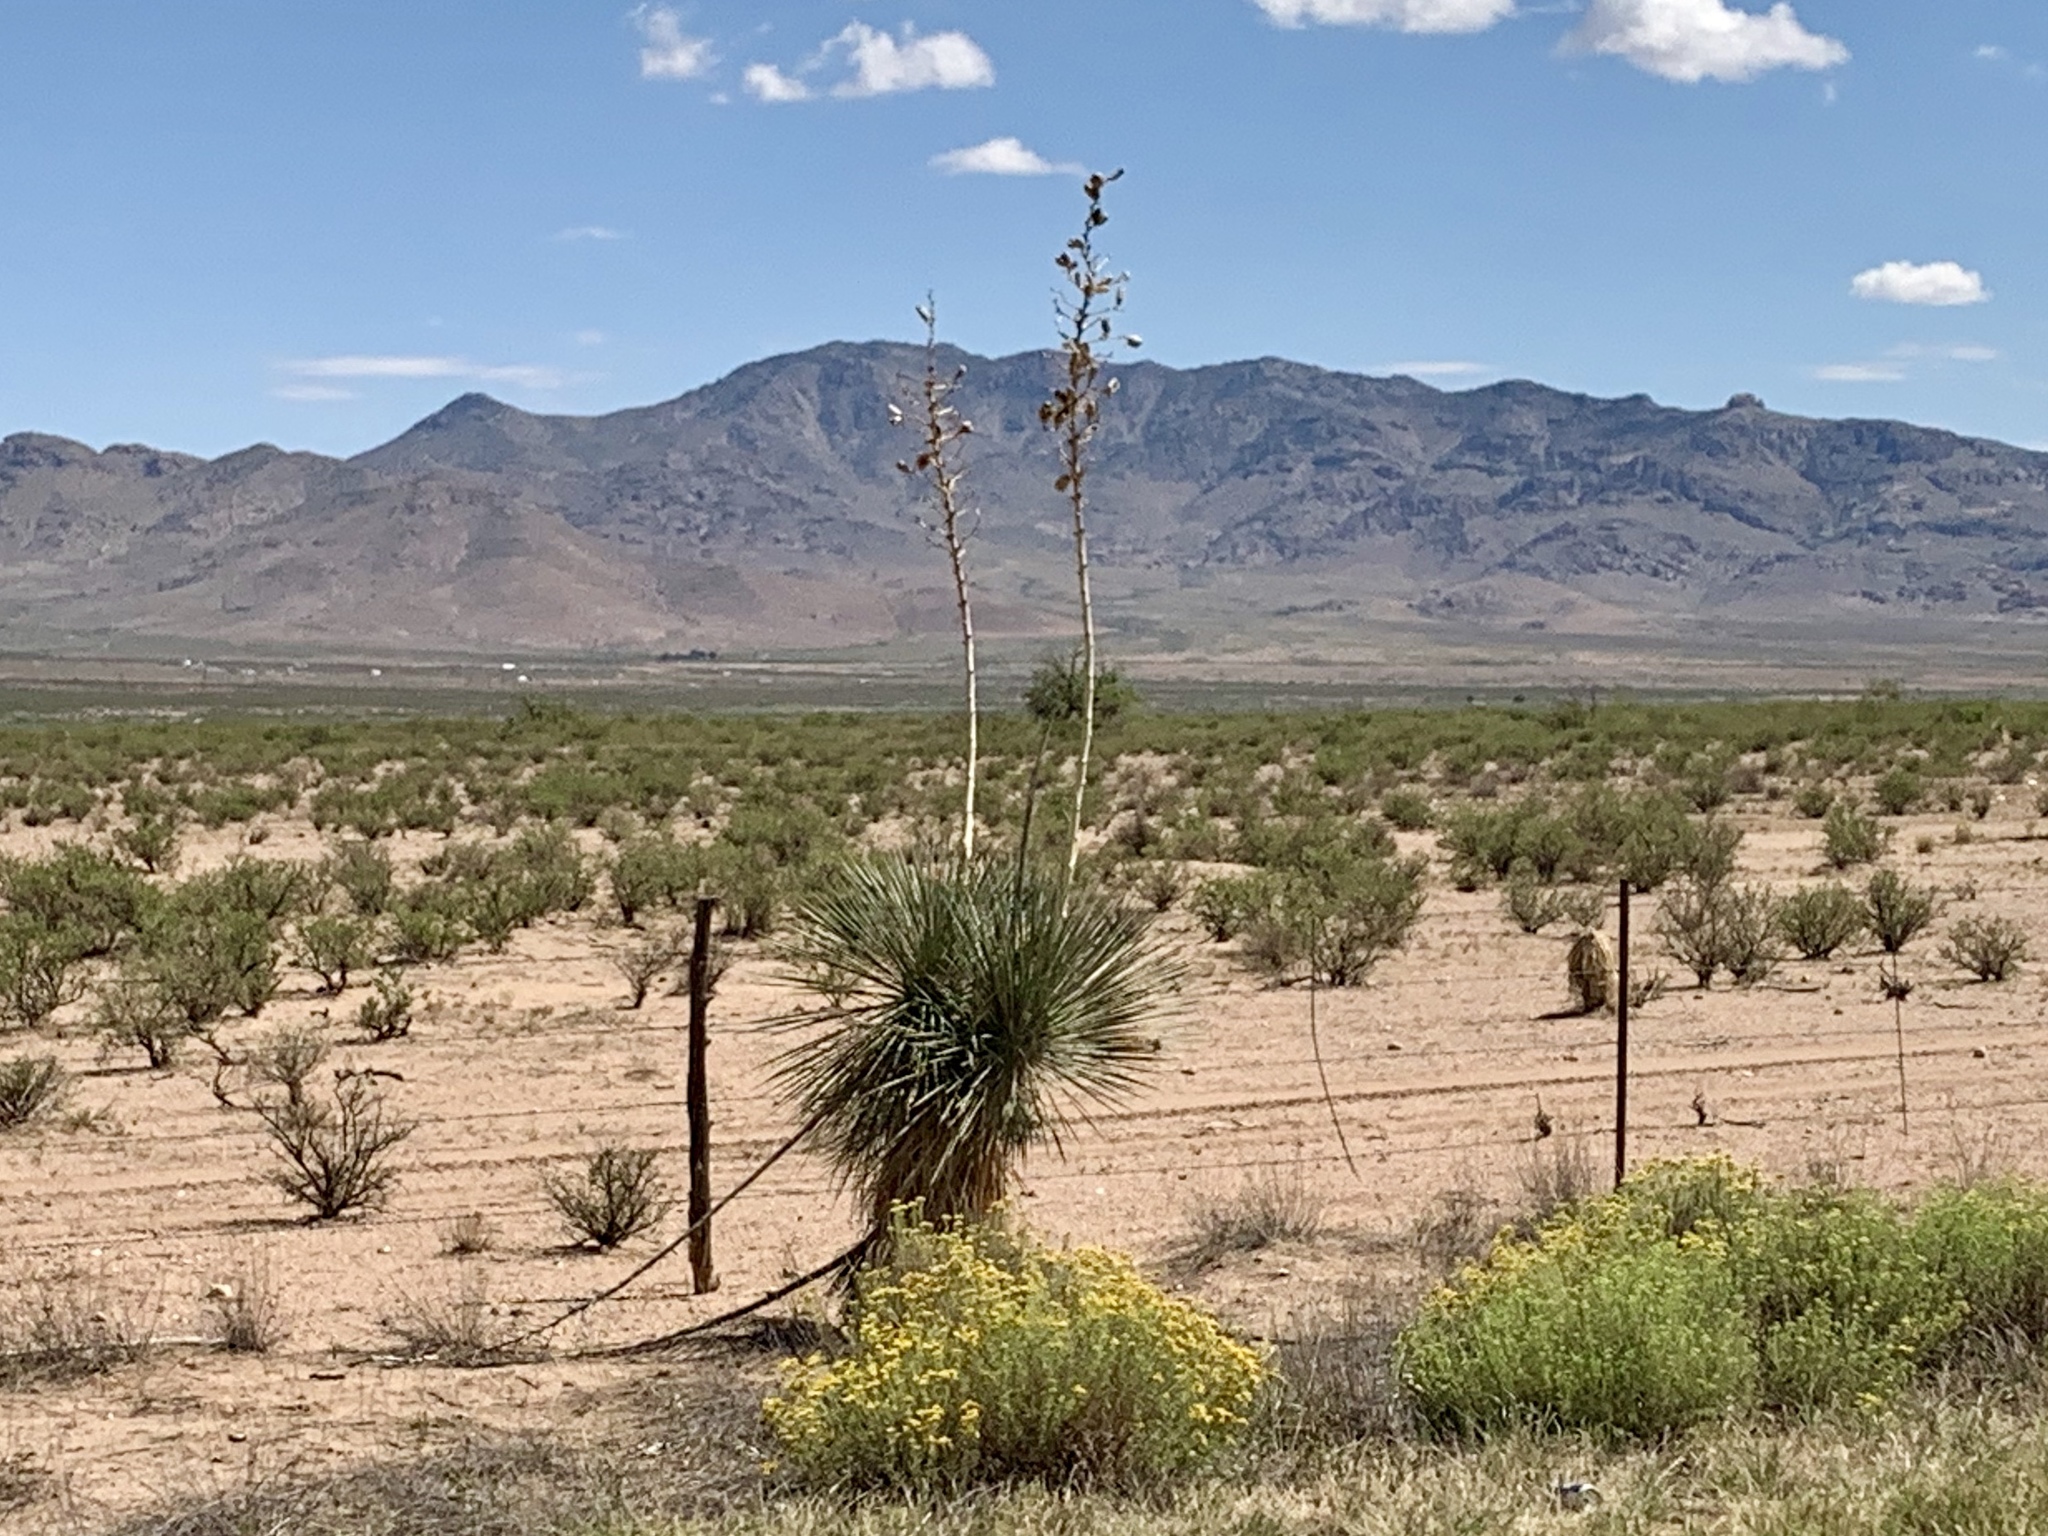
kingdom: Plantae
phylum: Tracheophyta
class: Liliopsida
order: Asparagales
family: Asparagaceae
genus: Yucca
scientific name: Yucca elata
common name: Palmella
